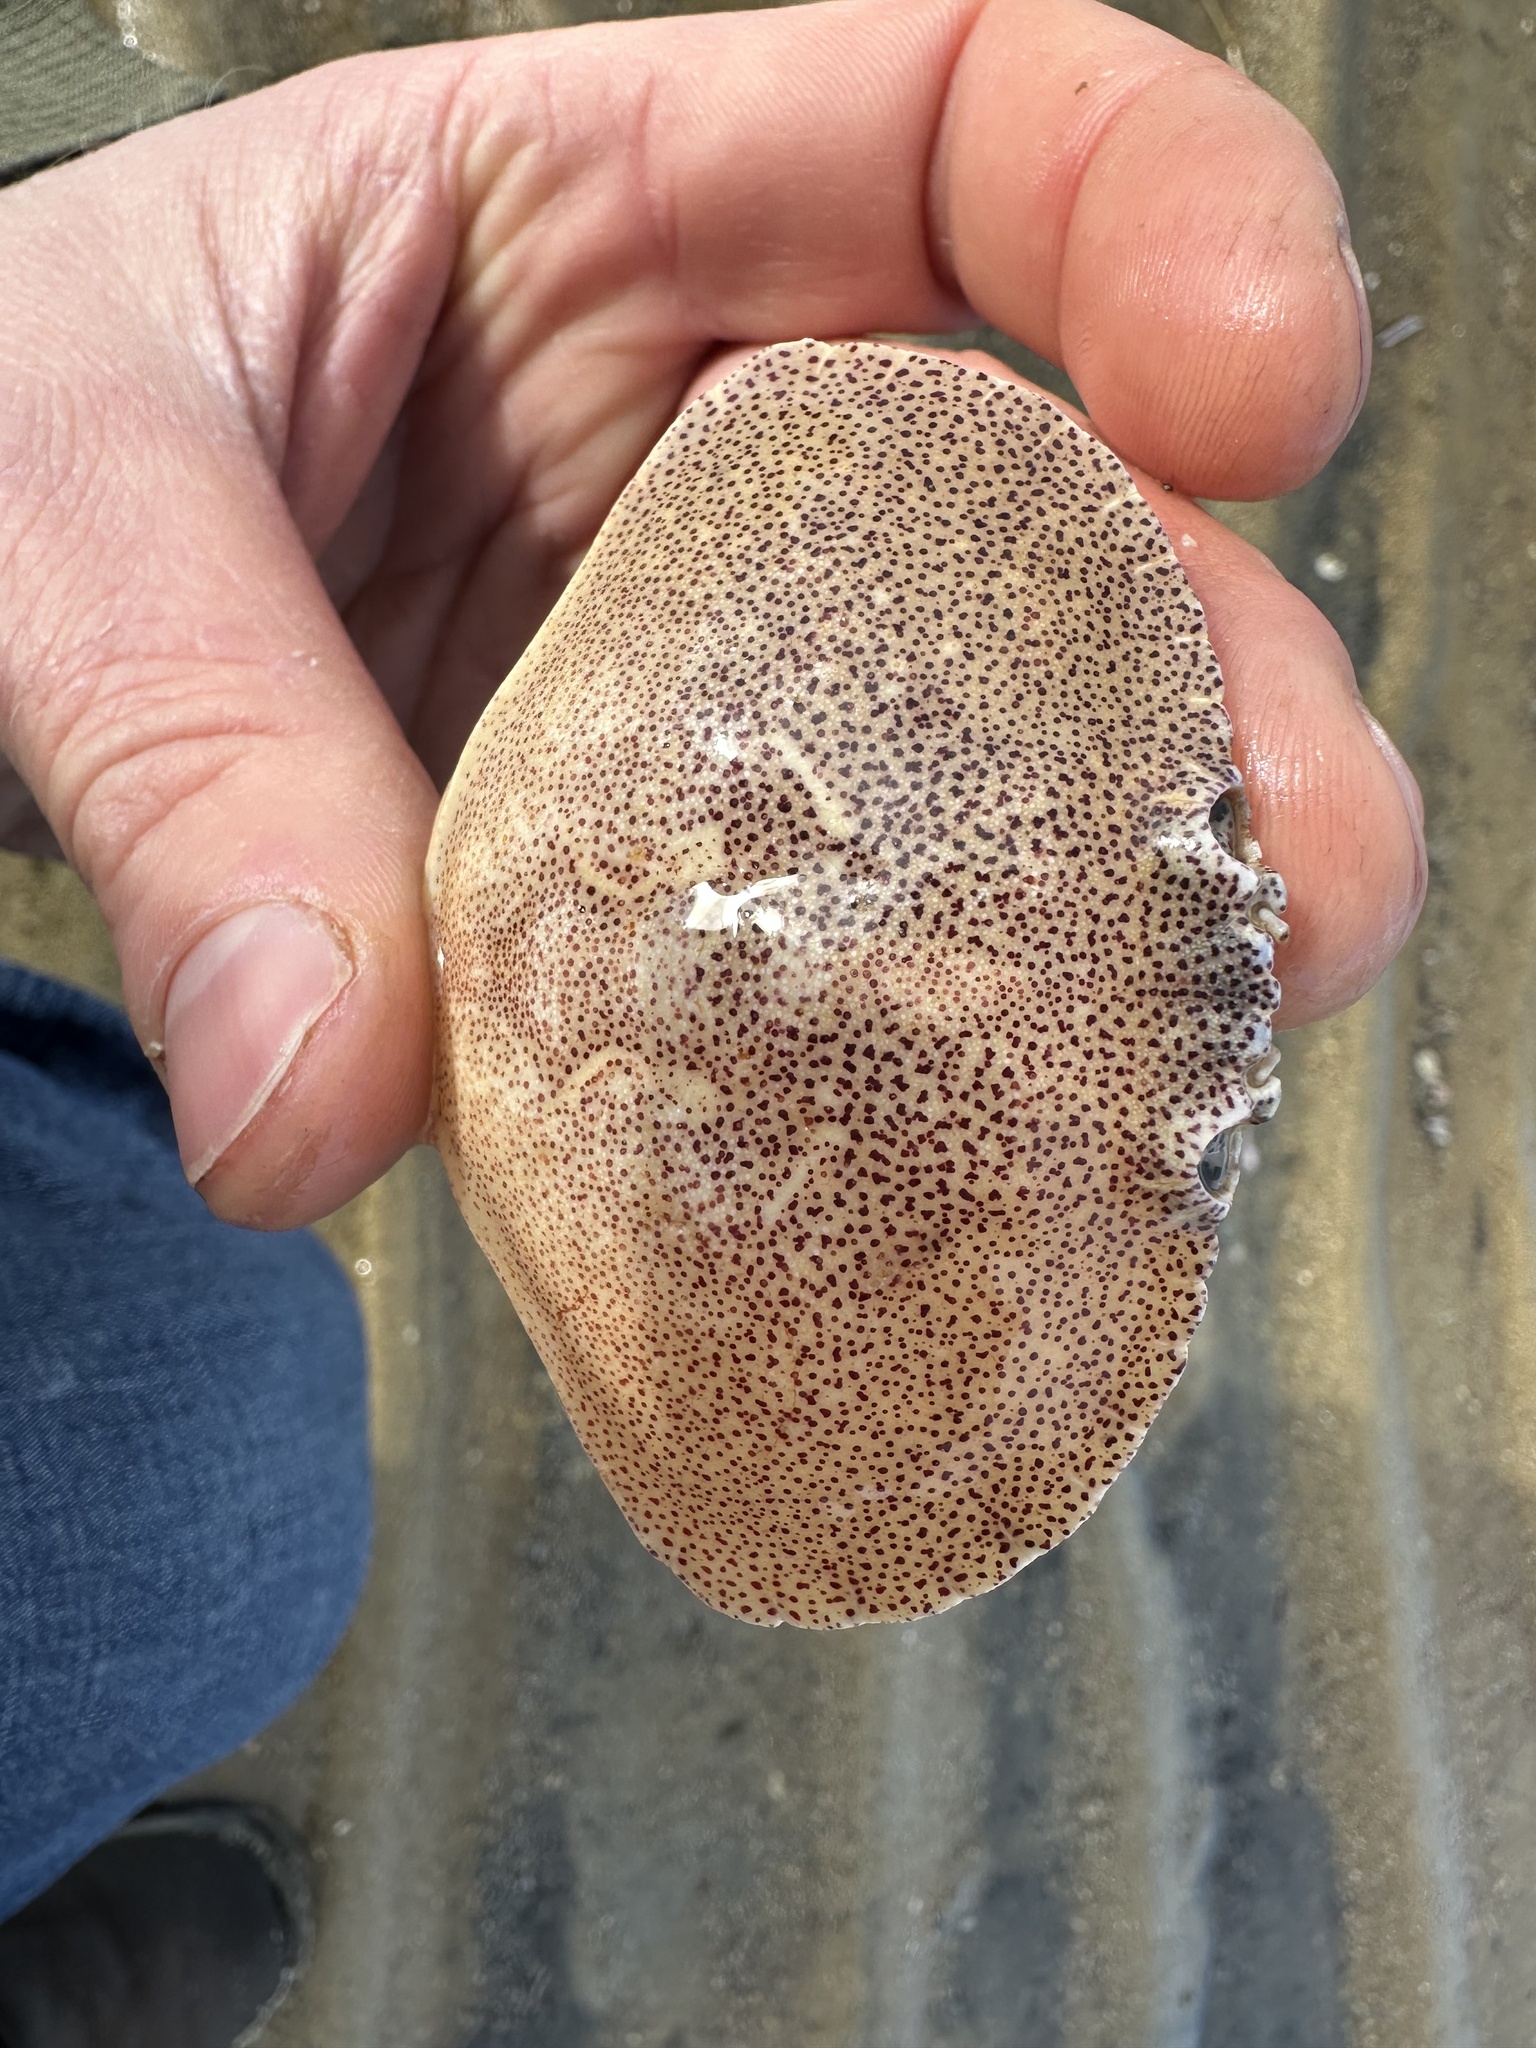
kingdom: Animalia
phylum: Arthropoda
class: Malacostraca
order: Decapoda
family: Cancridae
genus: Cancer
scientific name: Cancer irroratus
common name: Atlantic rock crab
